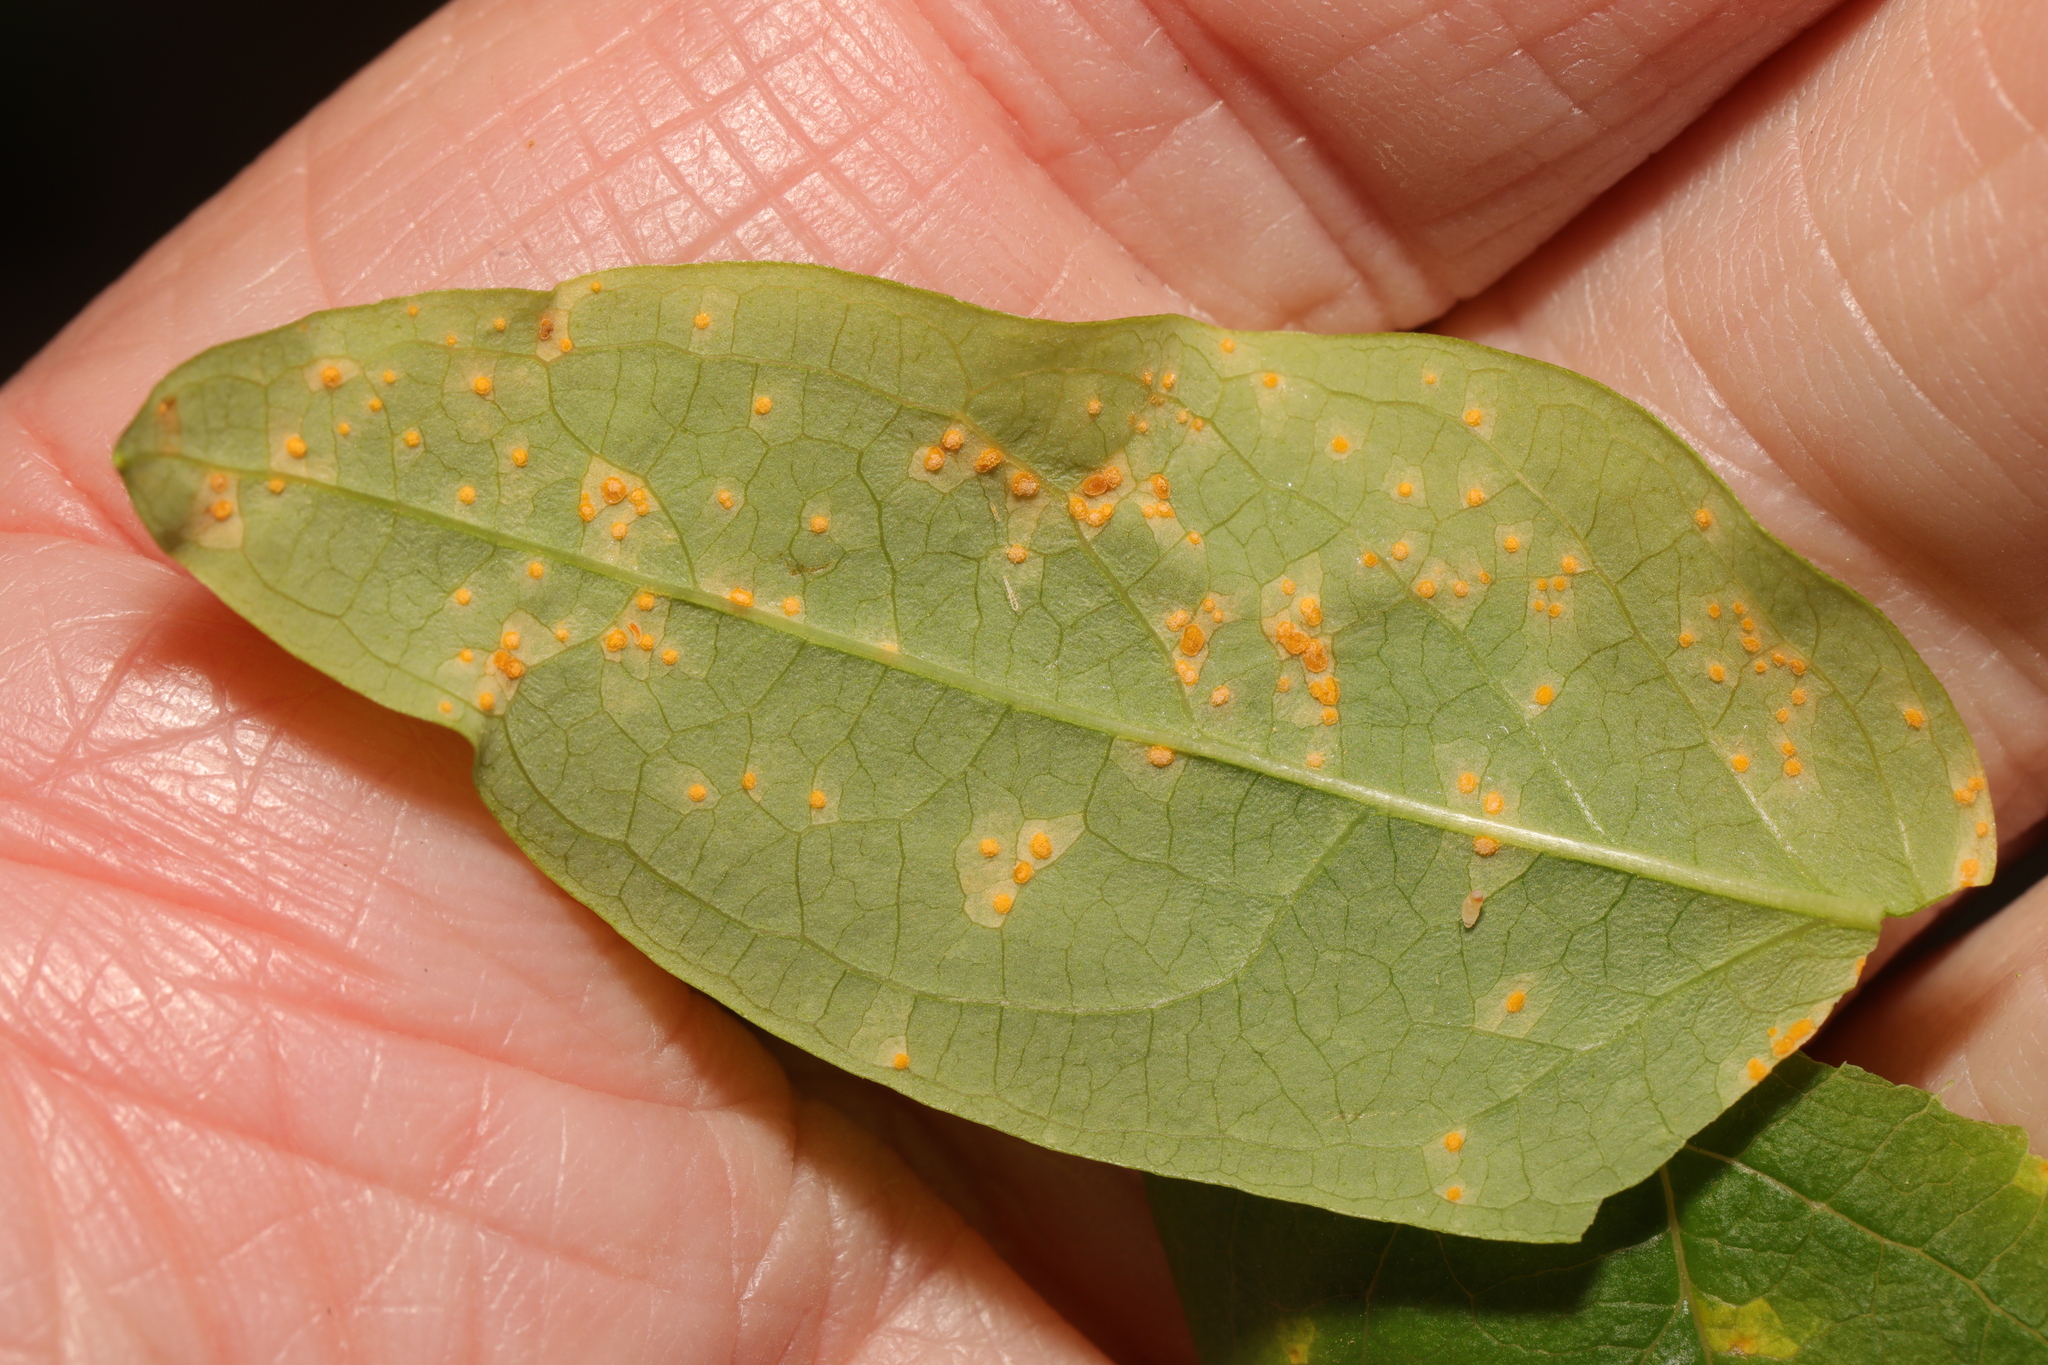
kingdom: Fungi
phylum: Basidiomycota
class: Pucciniomycetes
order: Pucciniales
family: Melampsoraceae
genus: Melampsora
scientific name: Melampsora
